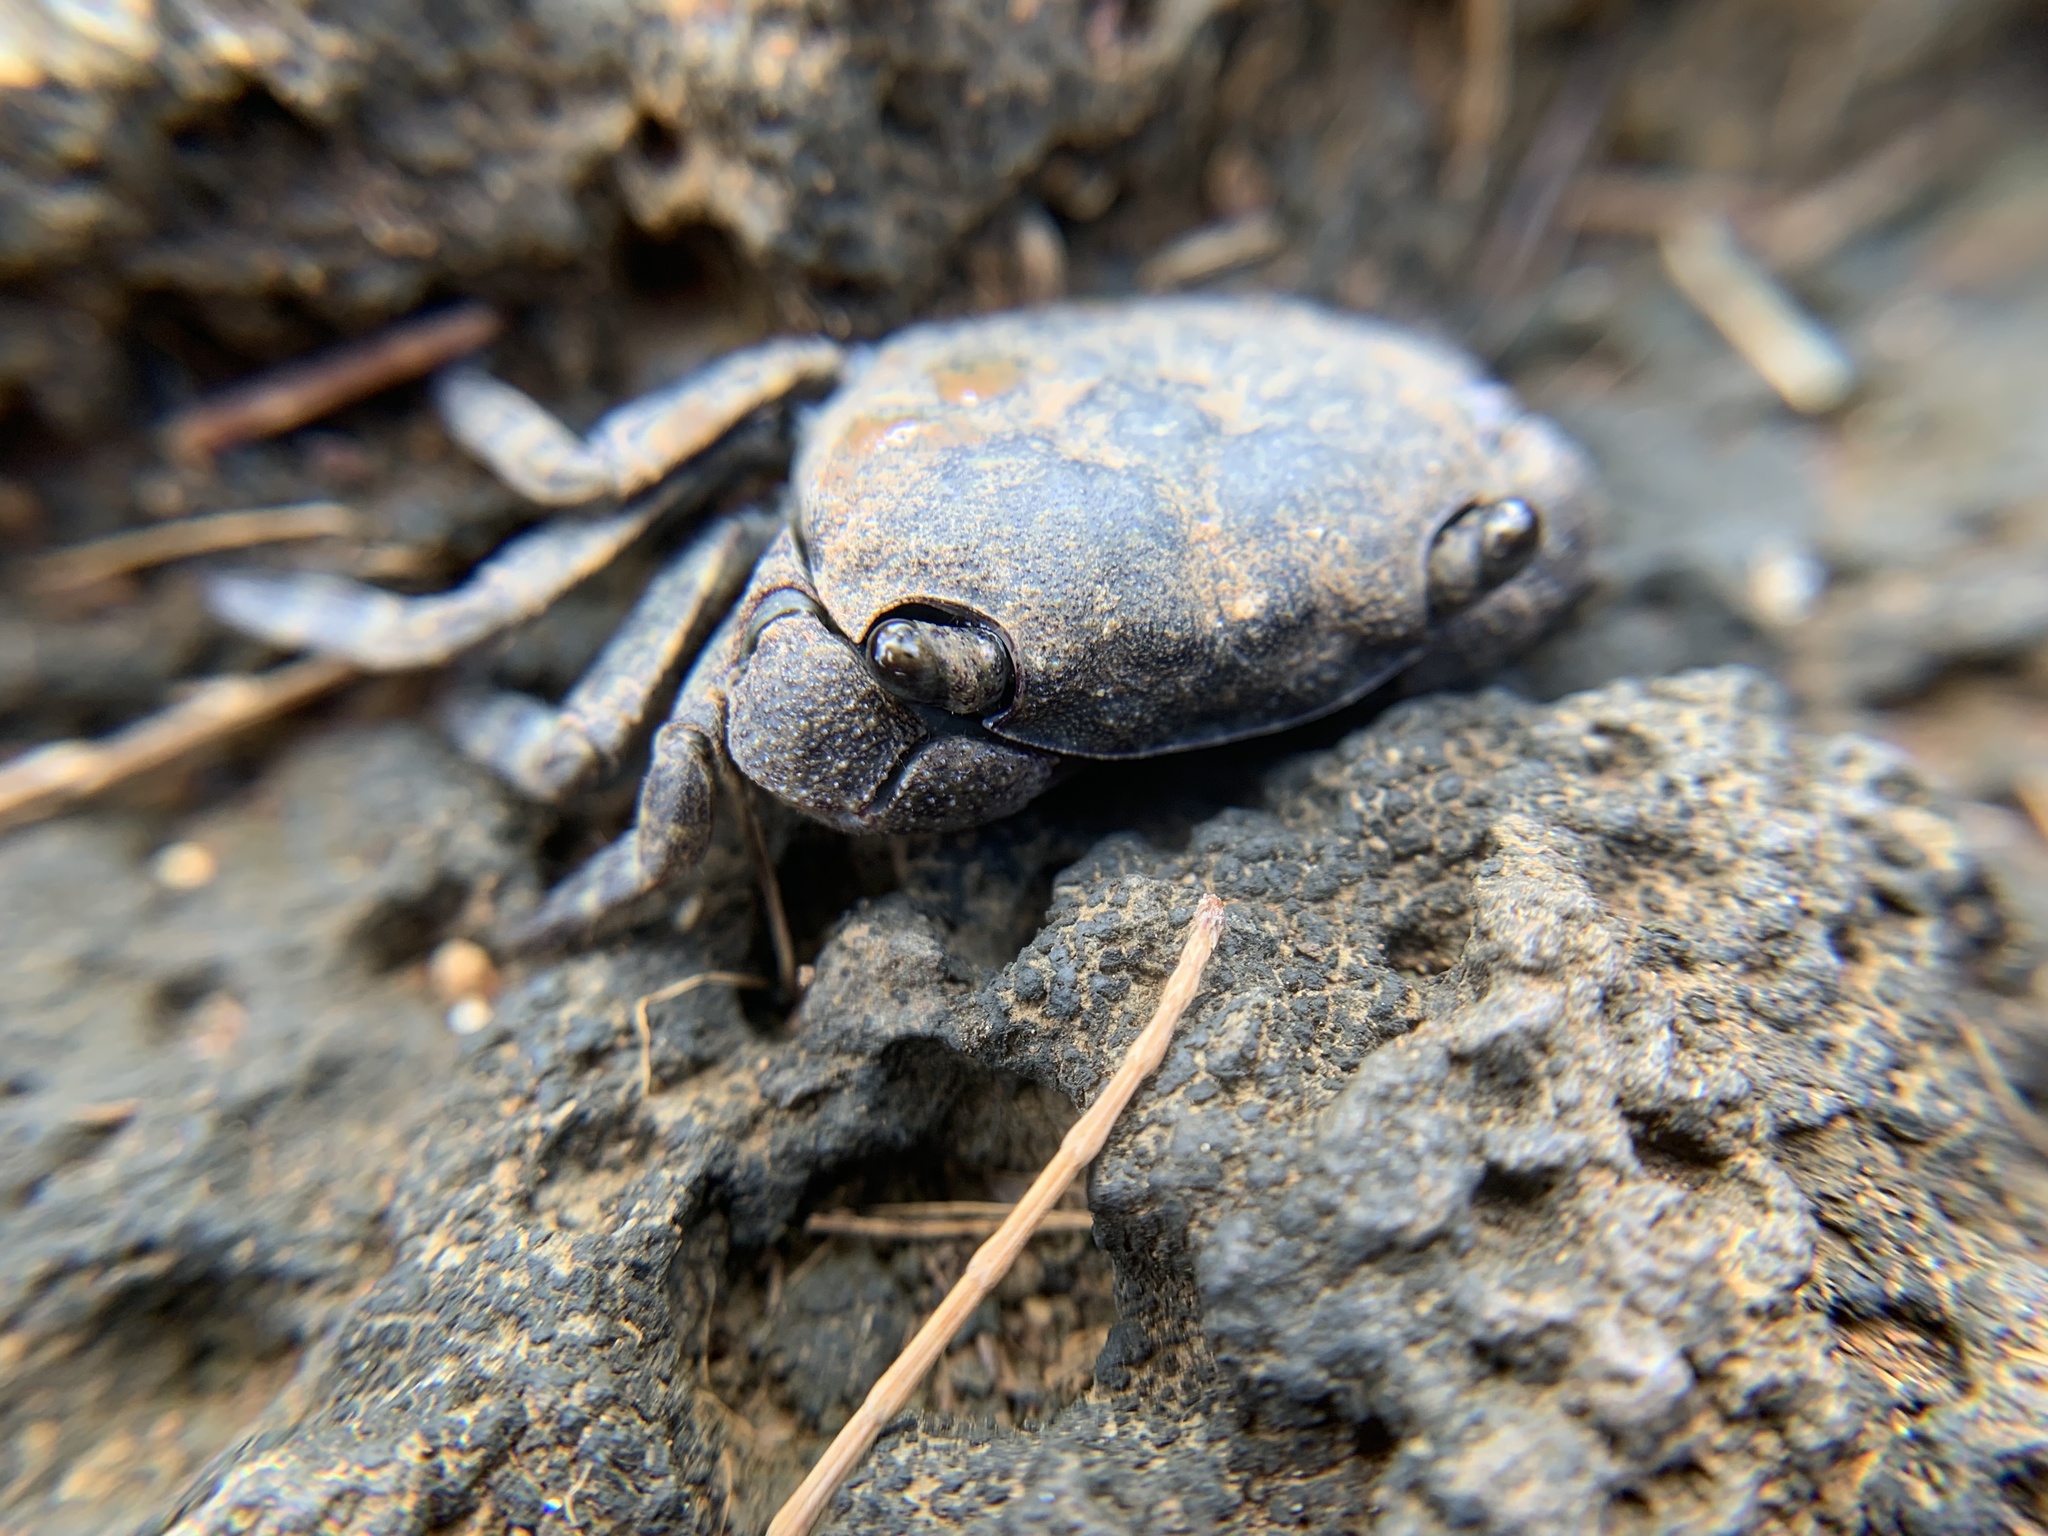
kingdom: Animalia
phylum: Arthropoda
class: Malacostraca
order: Decapoda
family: Sesarmidae
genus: Danarma
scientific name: Danarma obtusifrons
